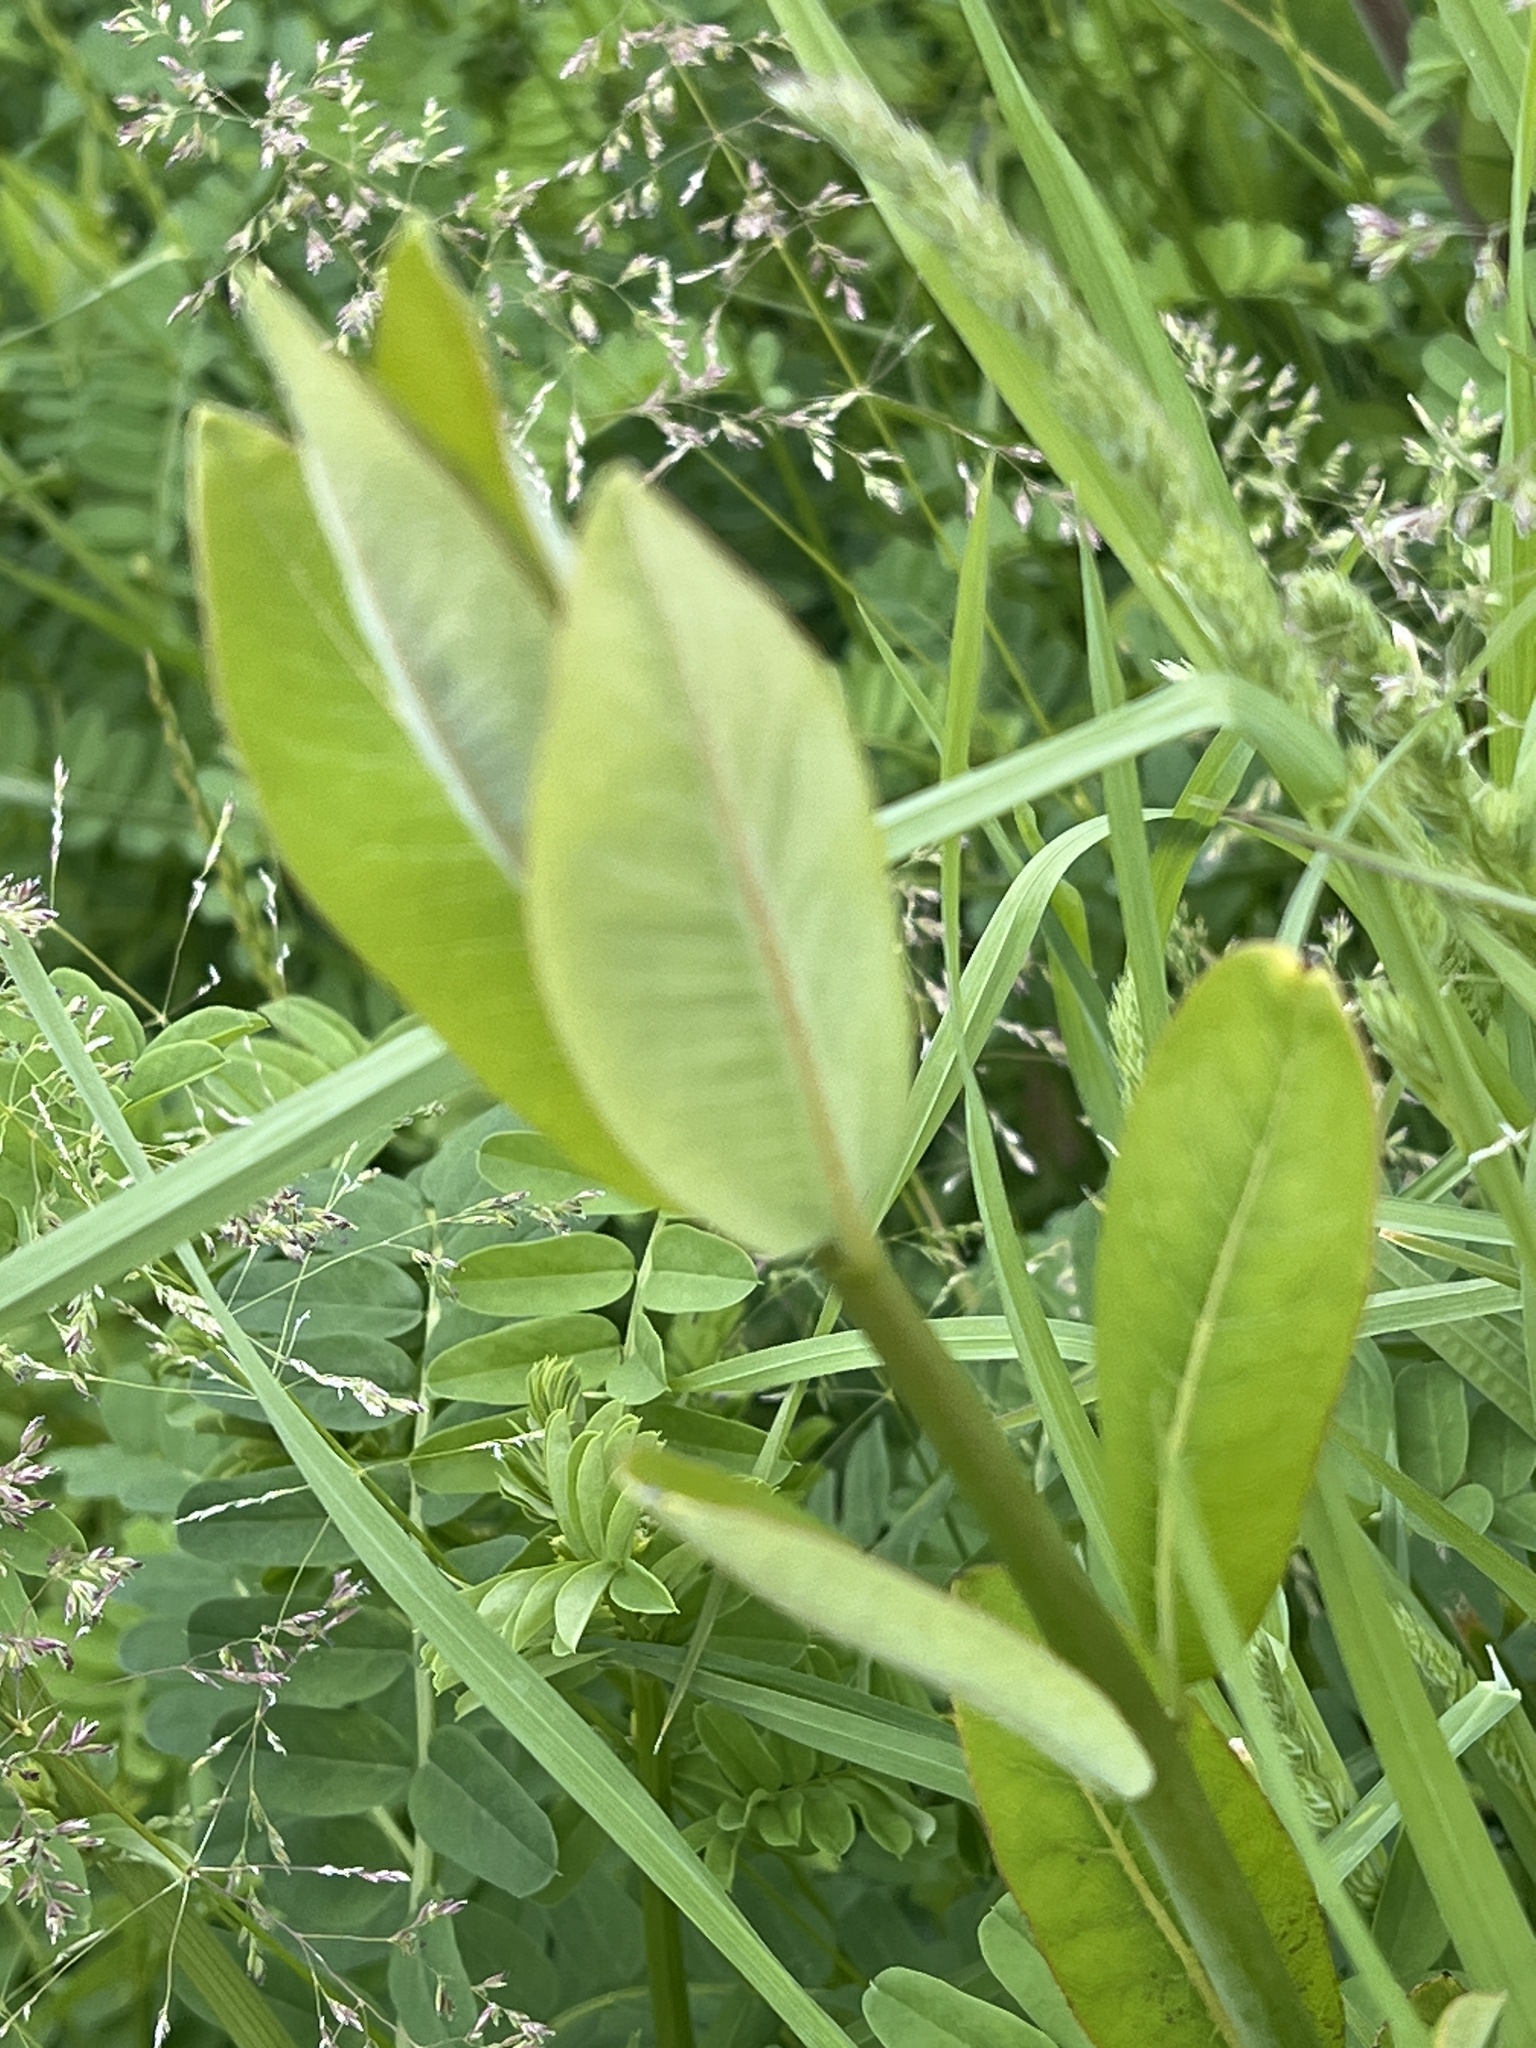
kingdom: Plantae
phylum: Tracheophyta
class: Magnoliopsida
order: Gentianales
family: Apocynaceae
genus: Asclepias
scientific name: Asclepias syriaca
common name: Common milkweed
